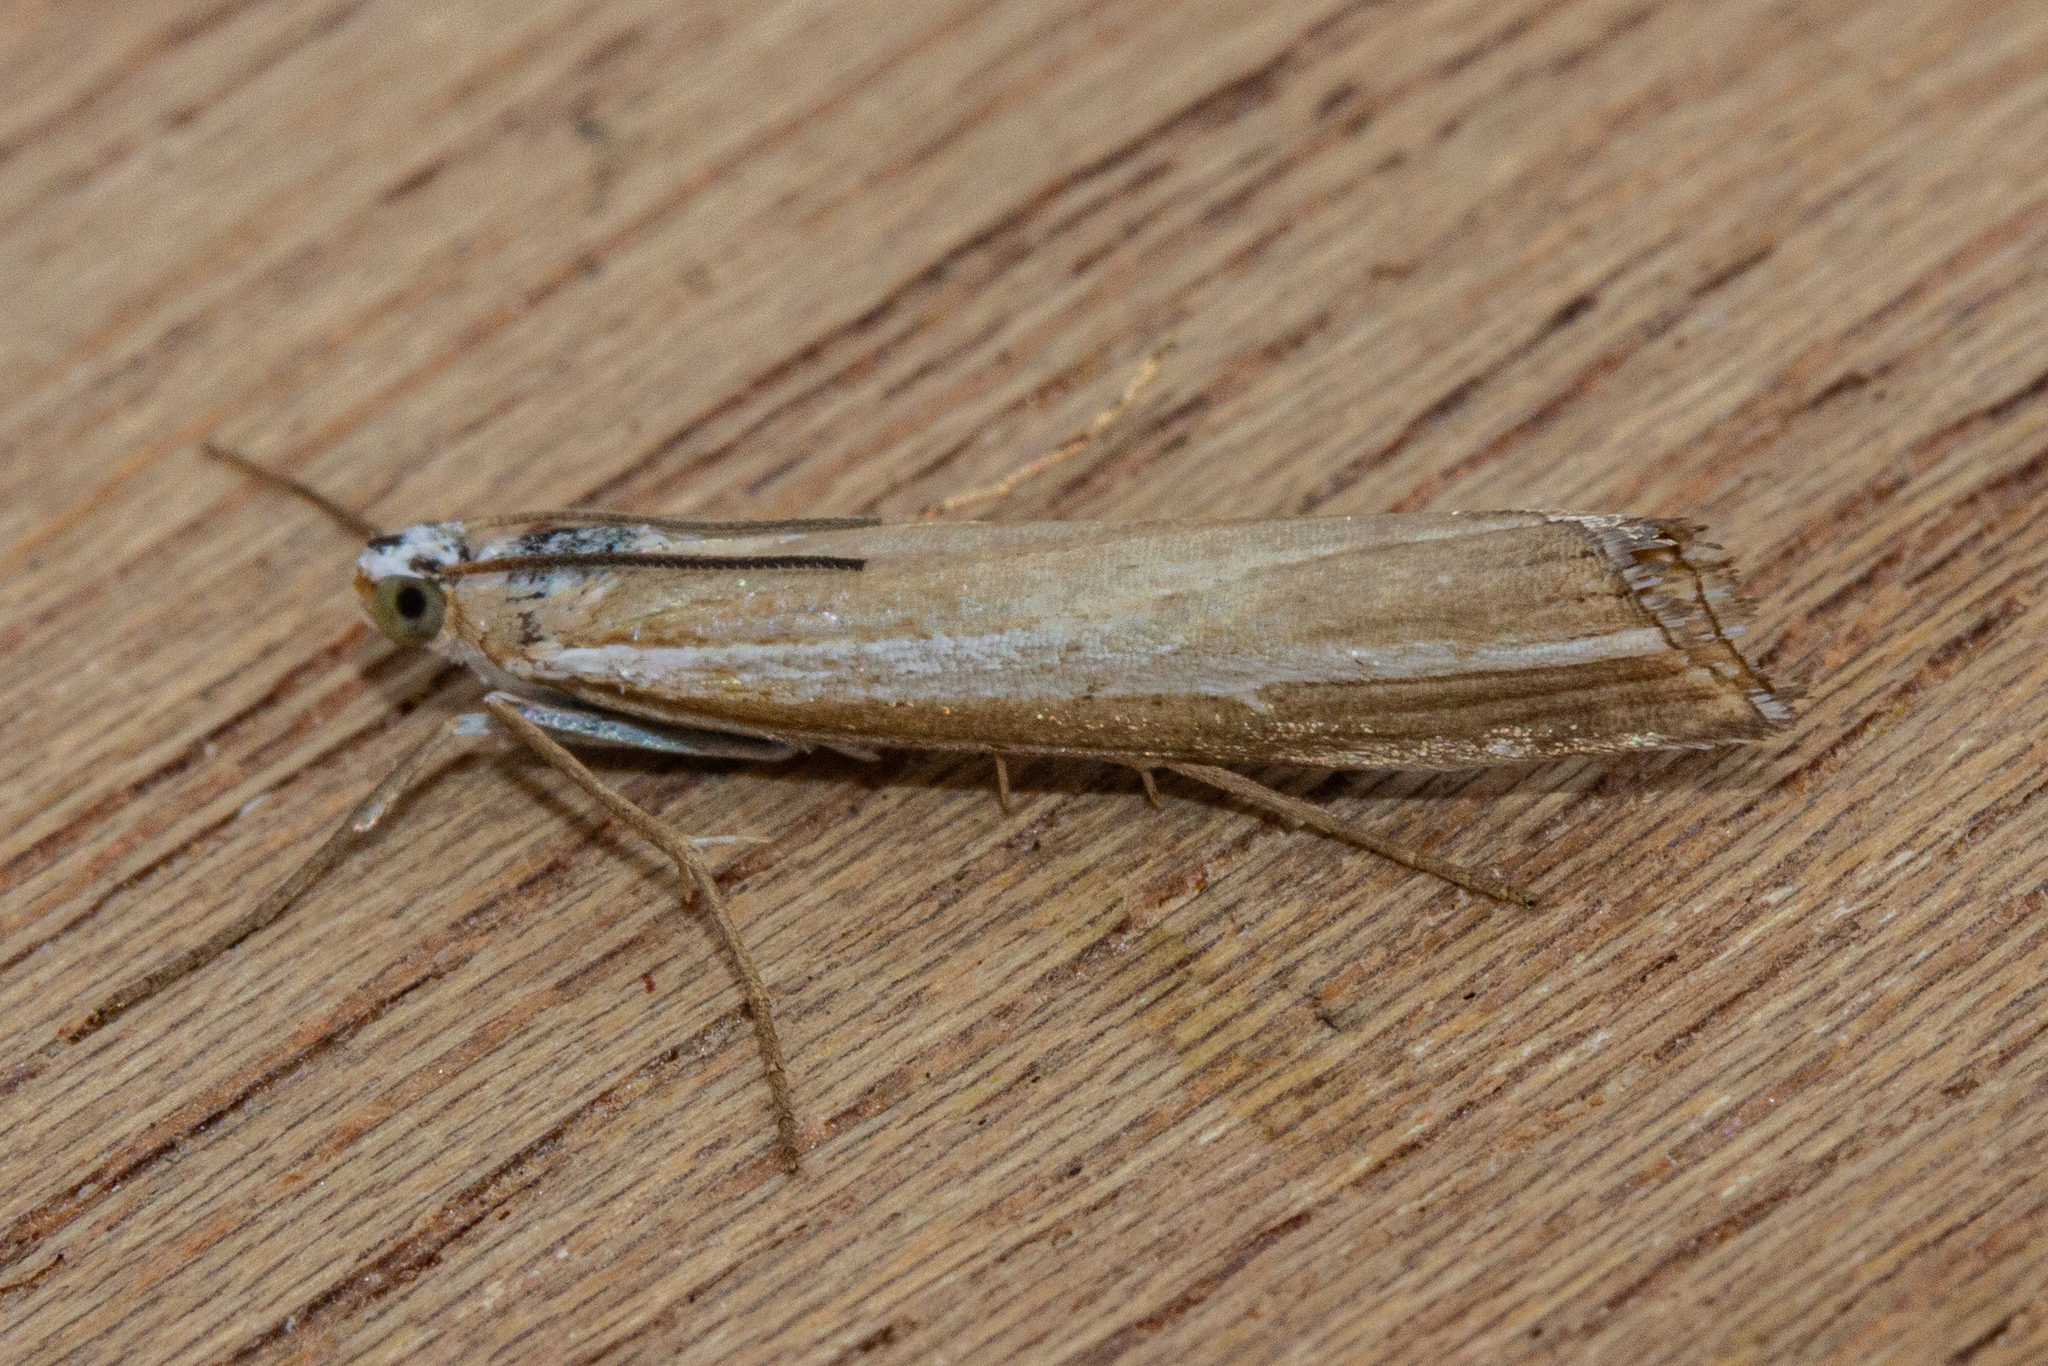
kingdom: Animalia
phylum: Arthropoda
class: Insecta
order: Lepidoptera
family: Crambidae
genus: Orocrambus
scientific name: Orocrambus vittellus
